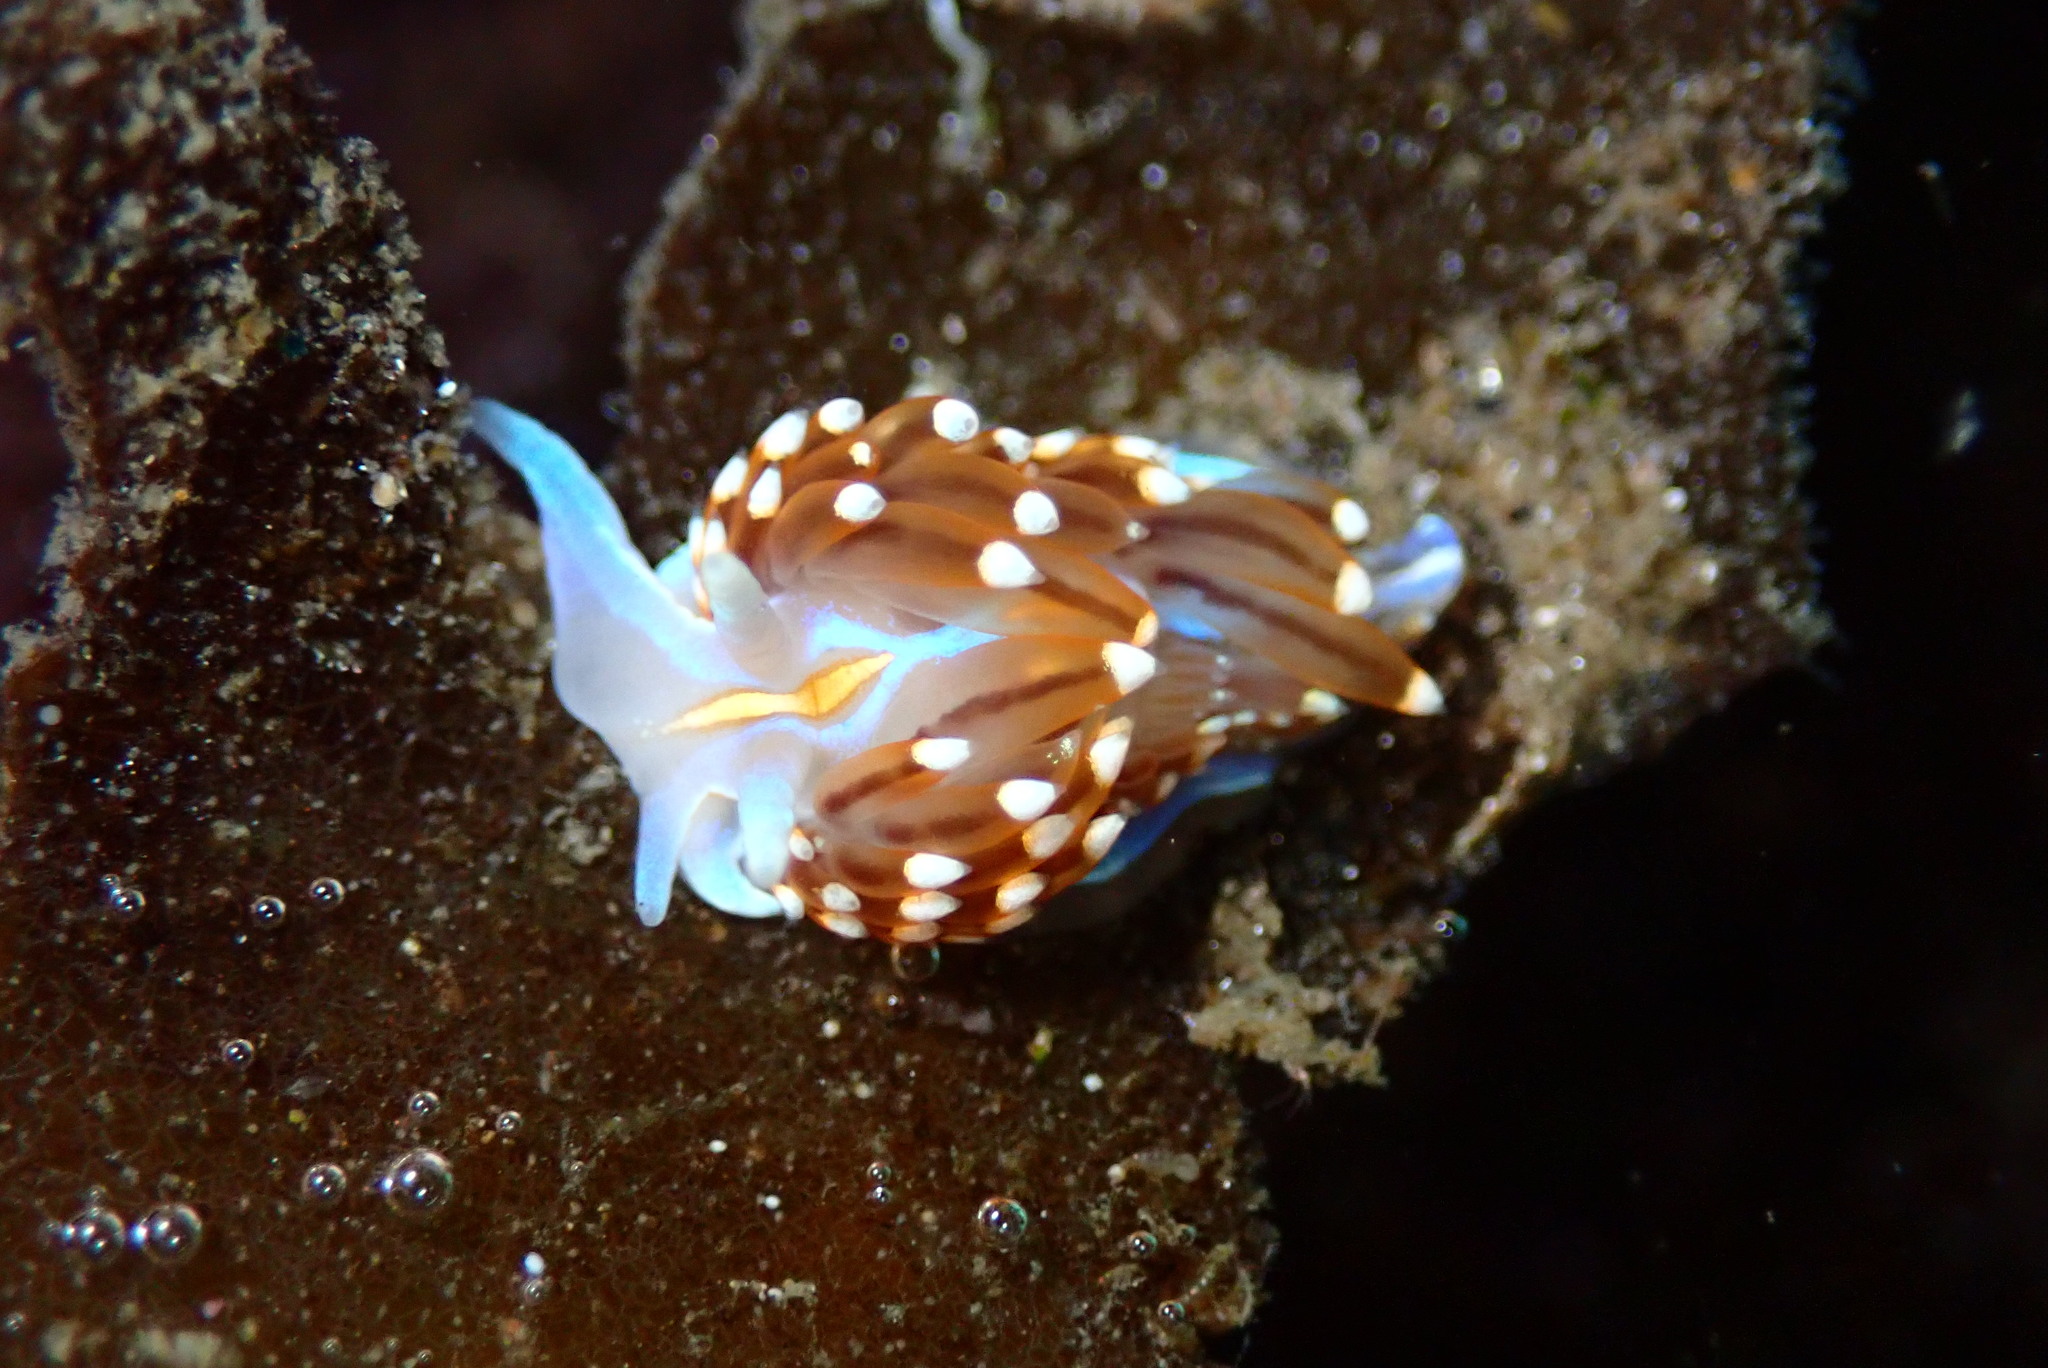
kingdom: Animalia
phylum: Mollusca
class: Gastropoda
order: Nudibranchia
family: Myrrhinidae
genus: Hermissenda
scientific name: Hermissenda opalescens
